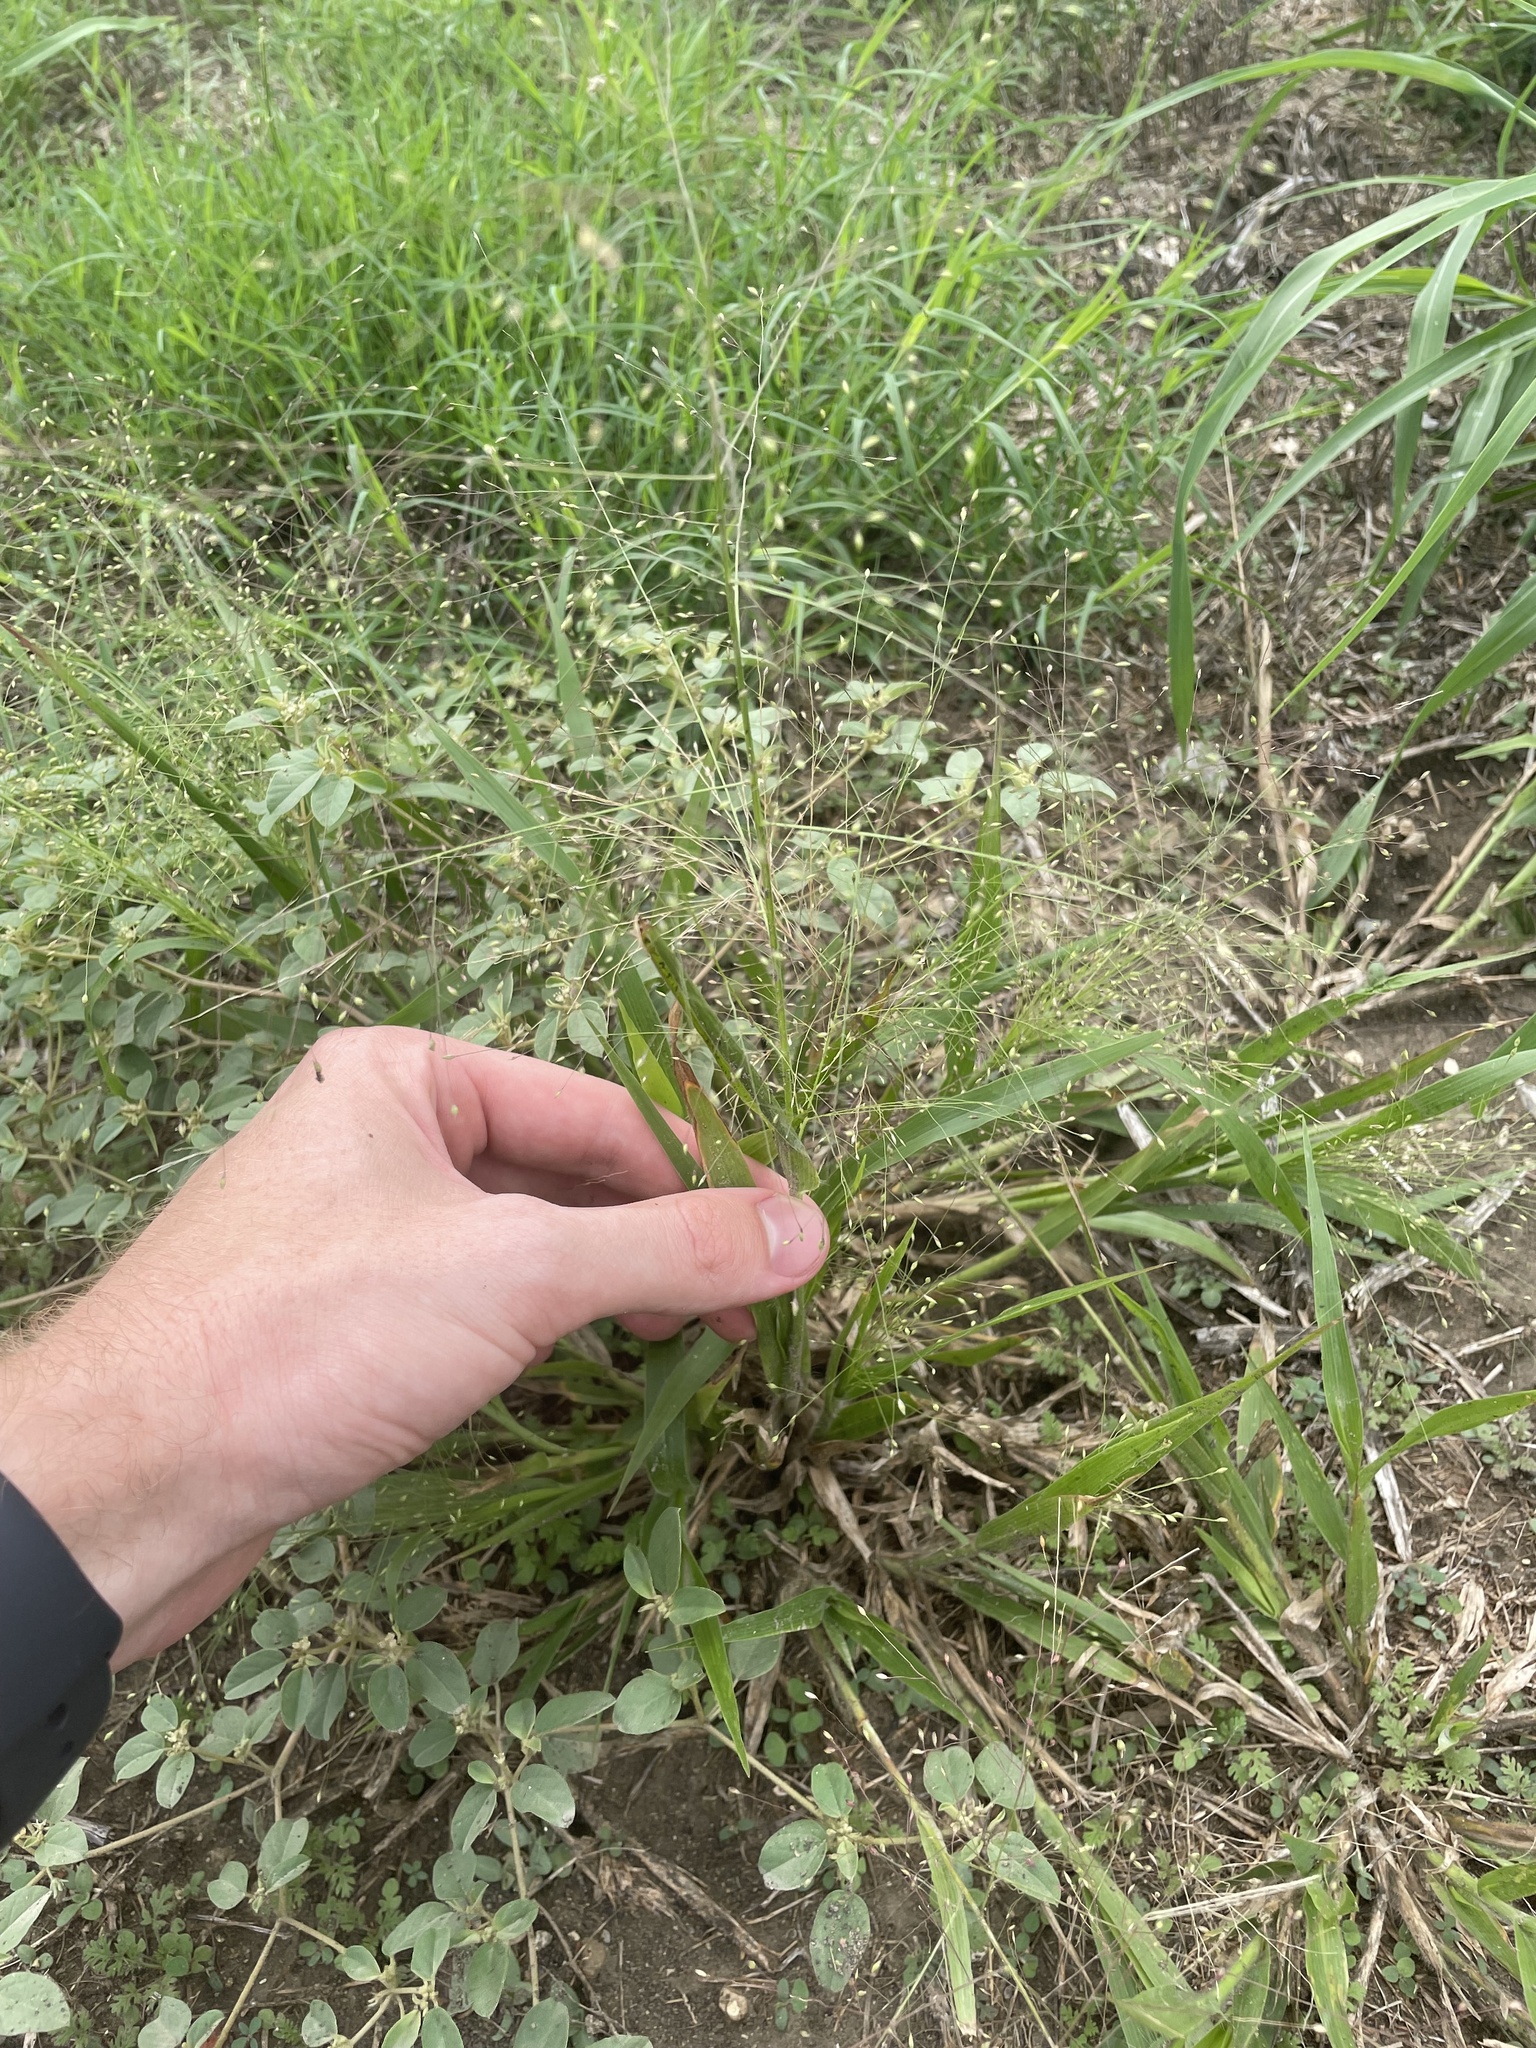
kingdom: Plantae
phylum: Tracheophyta
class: Liliopsida
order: Poales
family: Poaceae
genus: Panicum
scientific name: Panicum capillare
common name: Witch-grass
